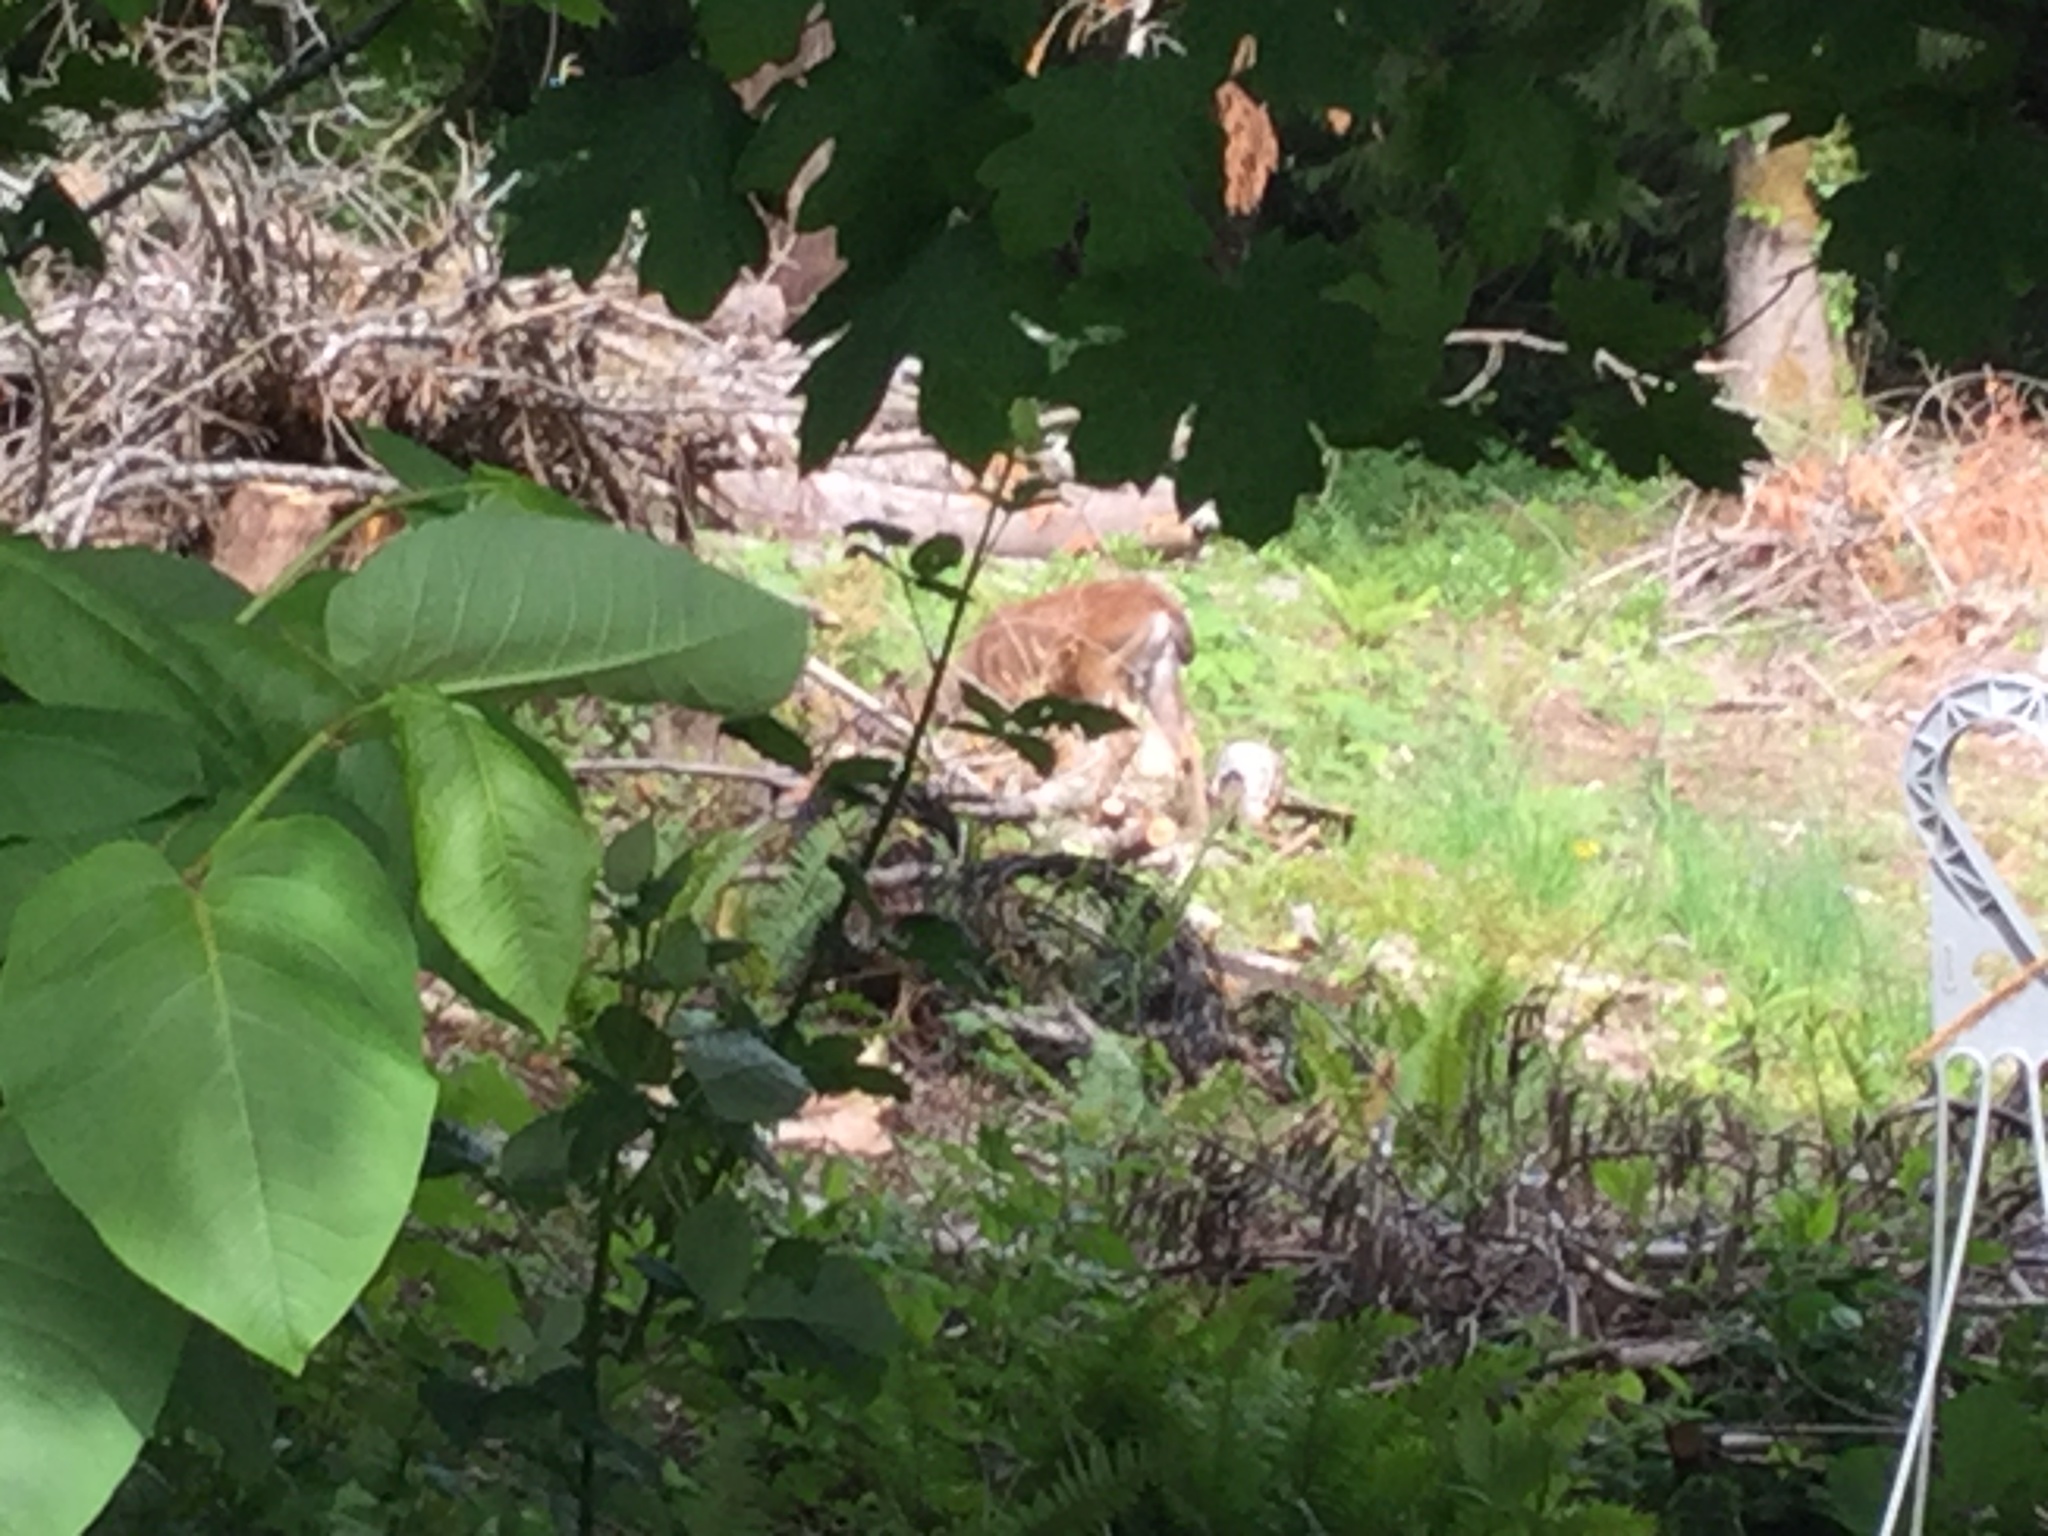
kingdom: Animalia
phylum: Chordata
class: Mammalia
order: Artiodactyla
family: Cervidae
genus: Odocoileus
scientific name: Odocoileus hemionus
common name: Mule deer
